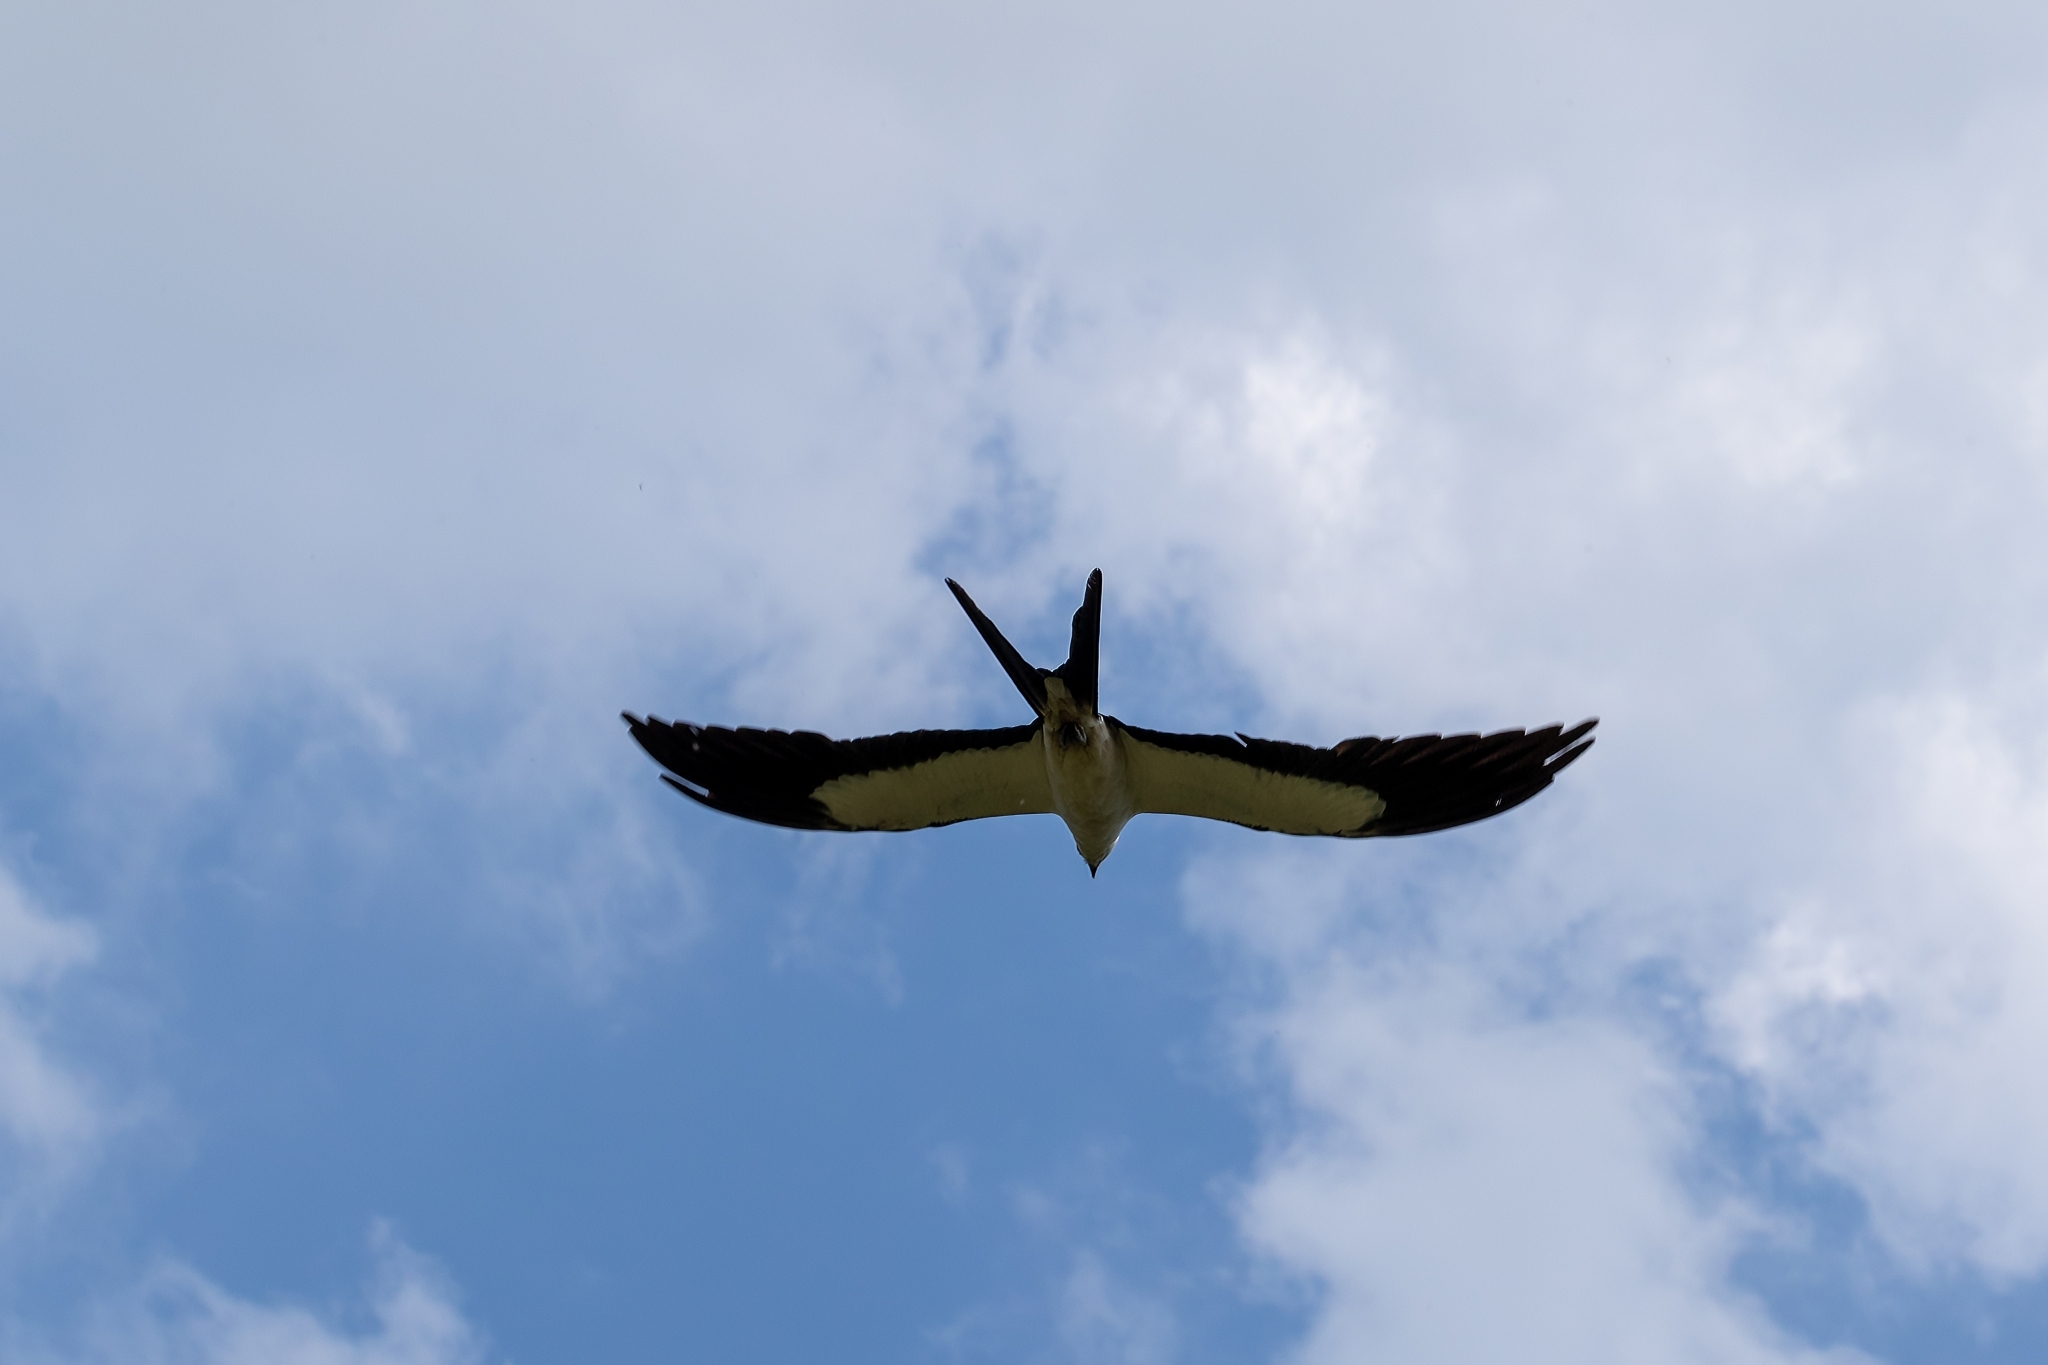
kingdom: Animalia
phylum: Chordata
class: Aves
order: Accipitriformes
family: Accipitridae
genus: Elanoides
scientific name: Elanoides forficatus
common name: Swallow-tailed kite
